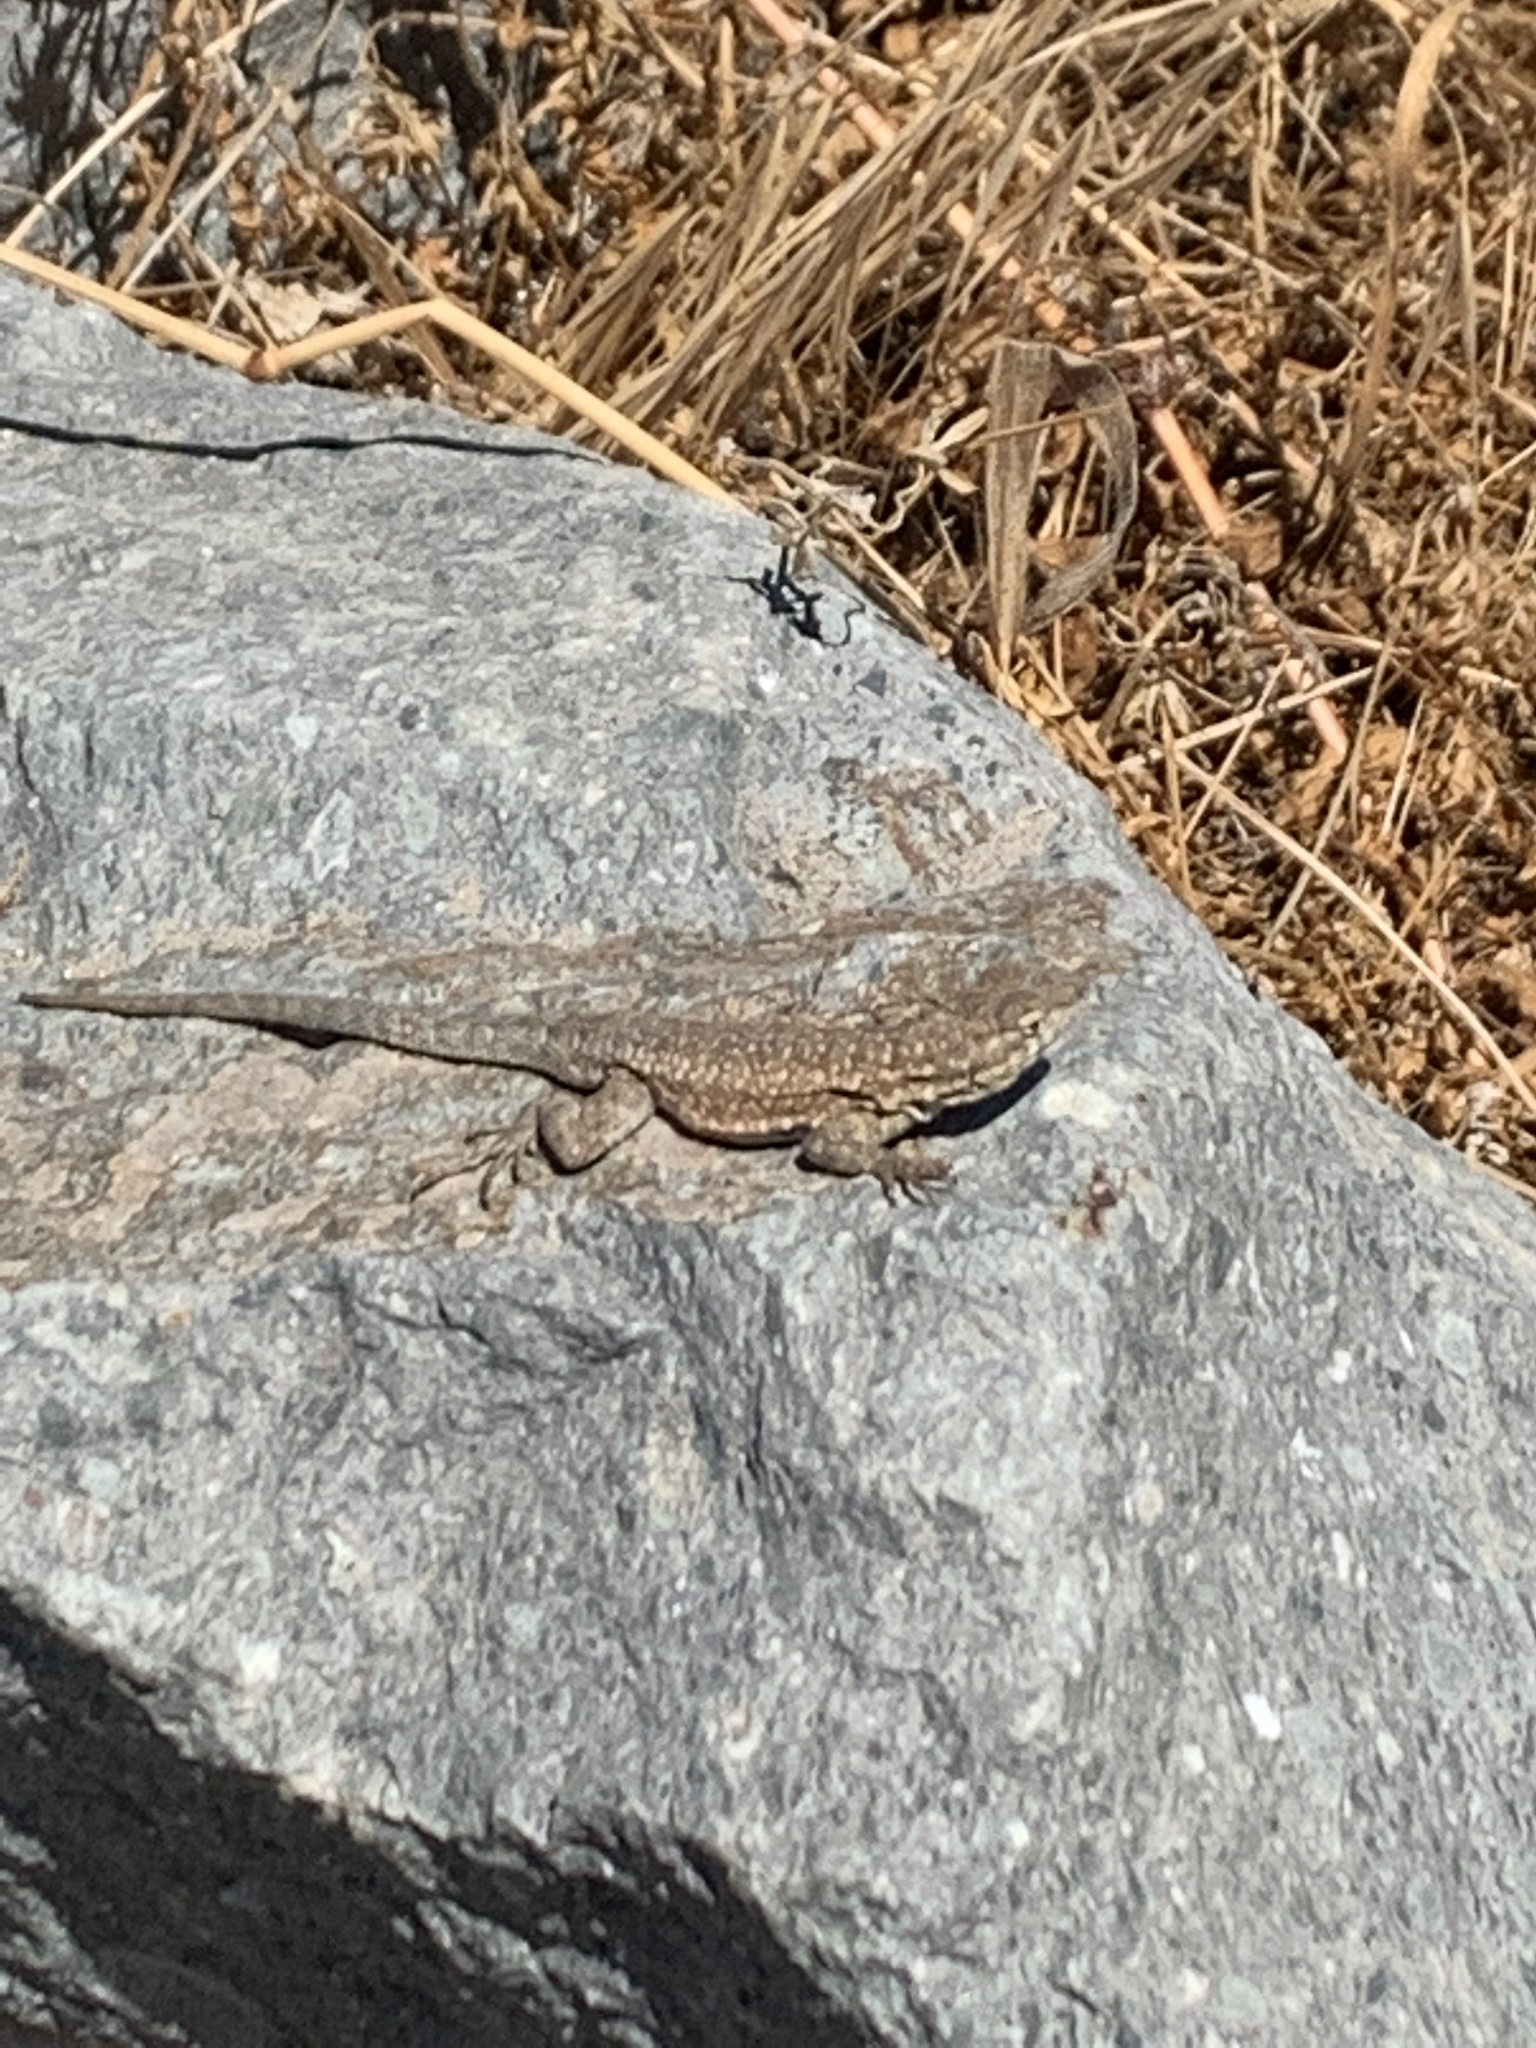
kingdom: Animalia
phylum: Chordata
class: Squamata
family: Phrynosomatidae
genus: Uta
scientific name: Uta stansburiana
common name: Side-blotched lizard
